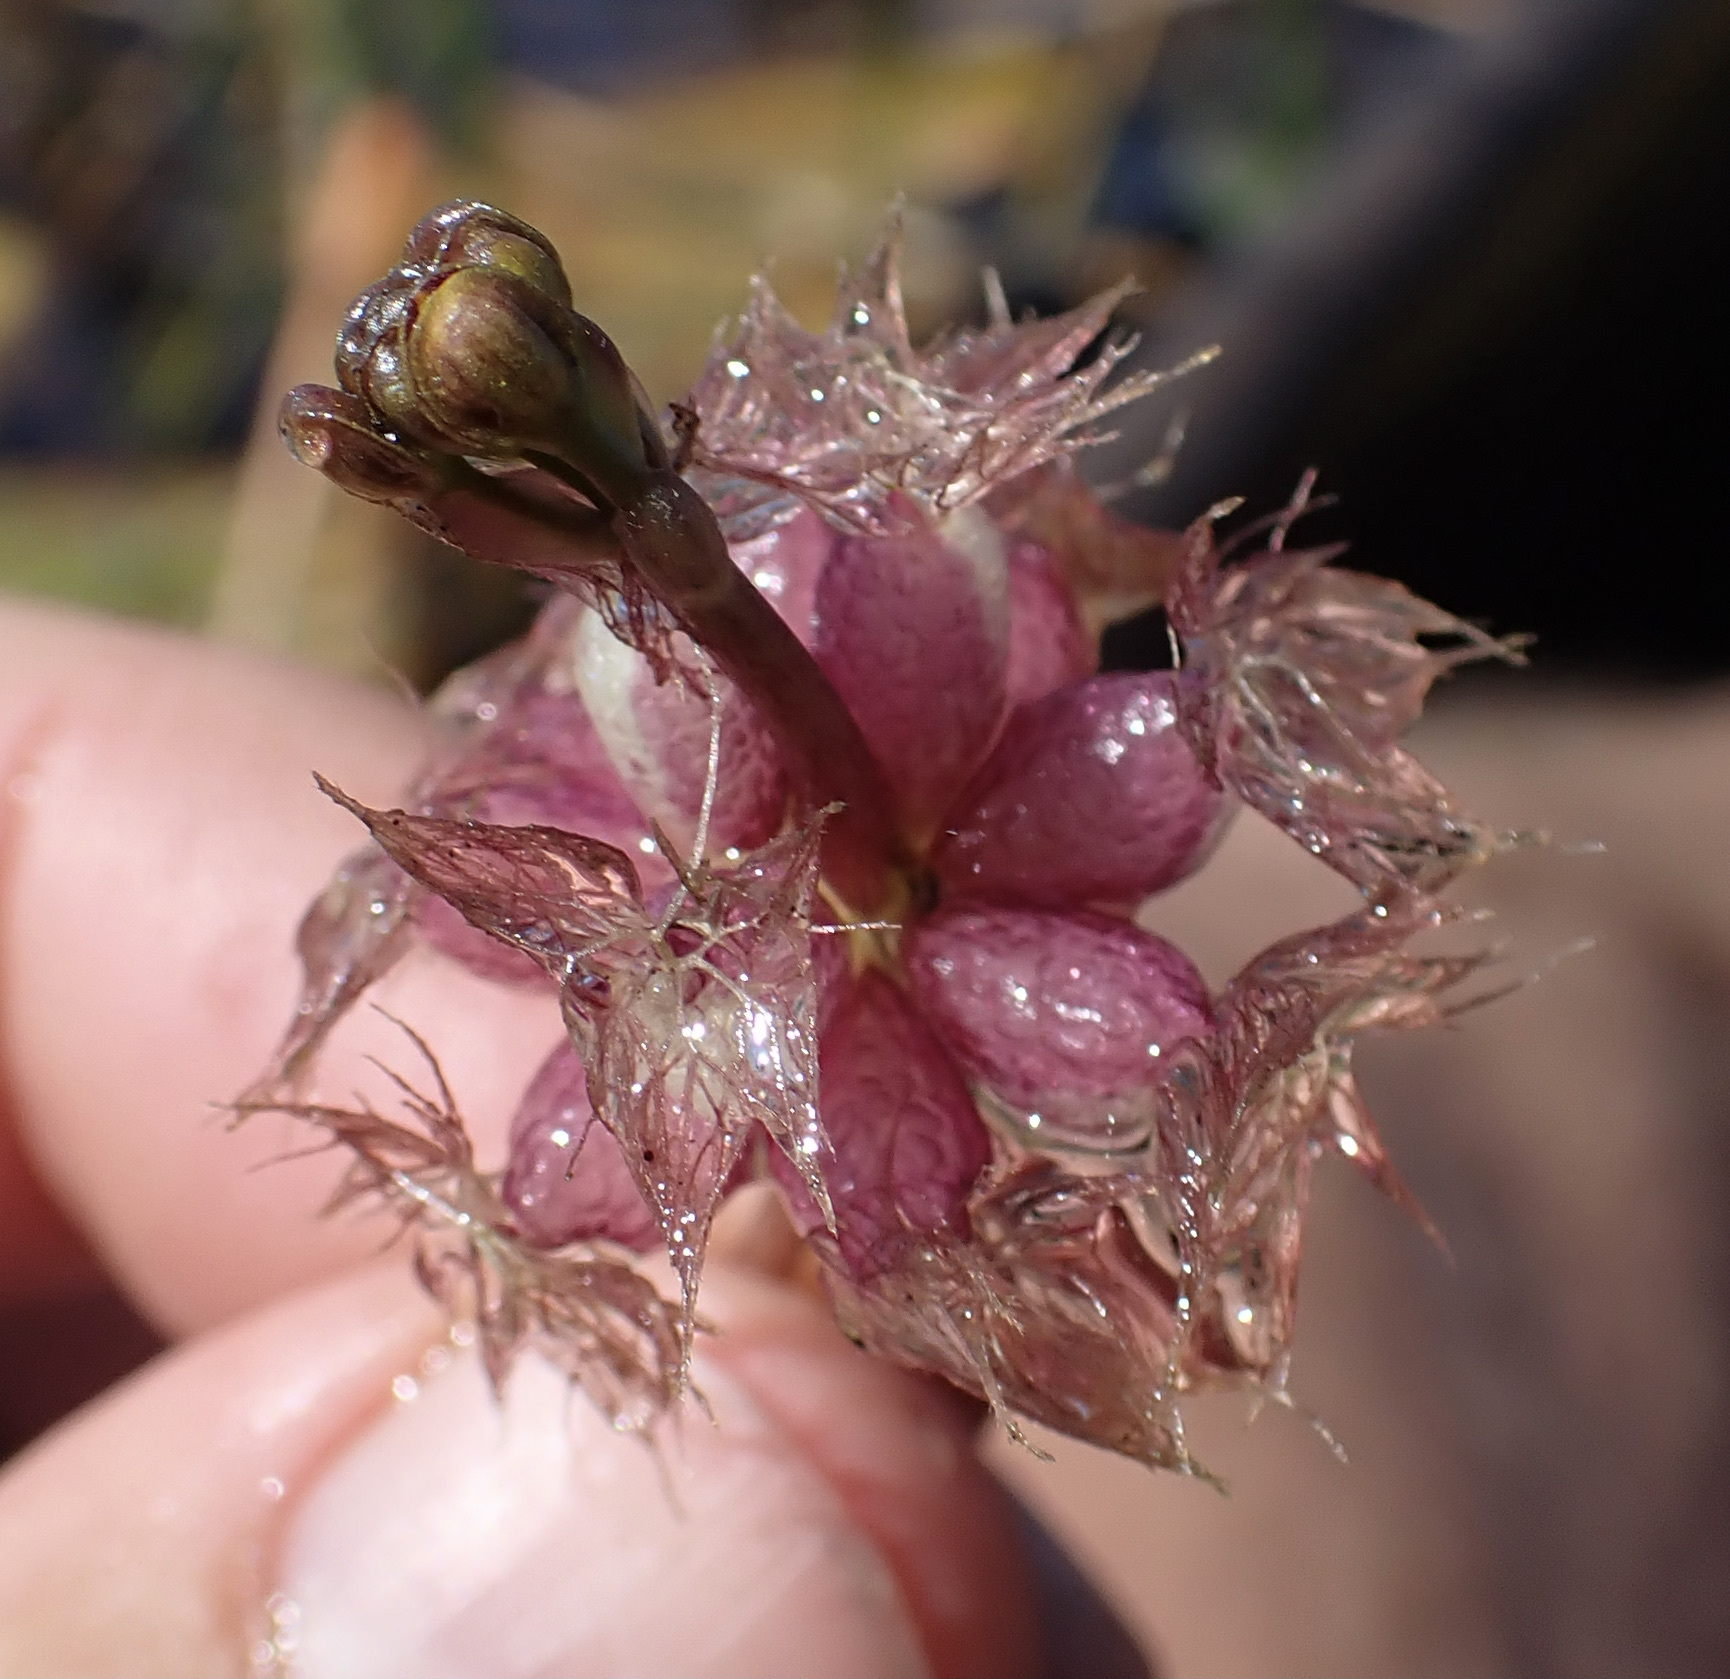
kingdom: Plantae
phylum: Tracheophyta
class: Magnoliopsida
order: Lamiales
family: Lentibulariaceae
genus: Utricularia
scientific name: Utricularia stellaris
